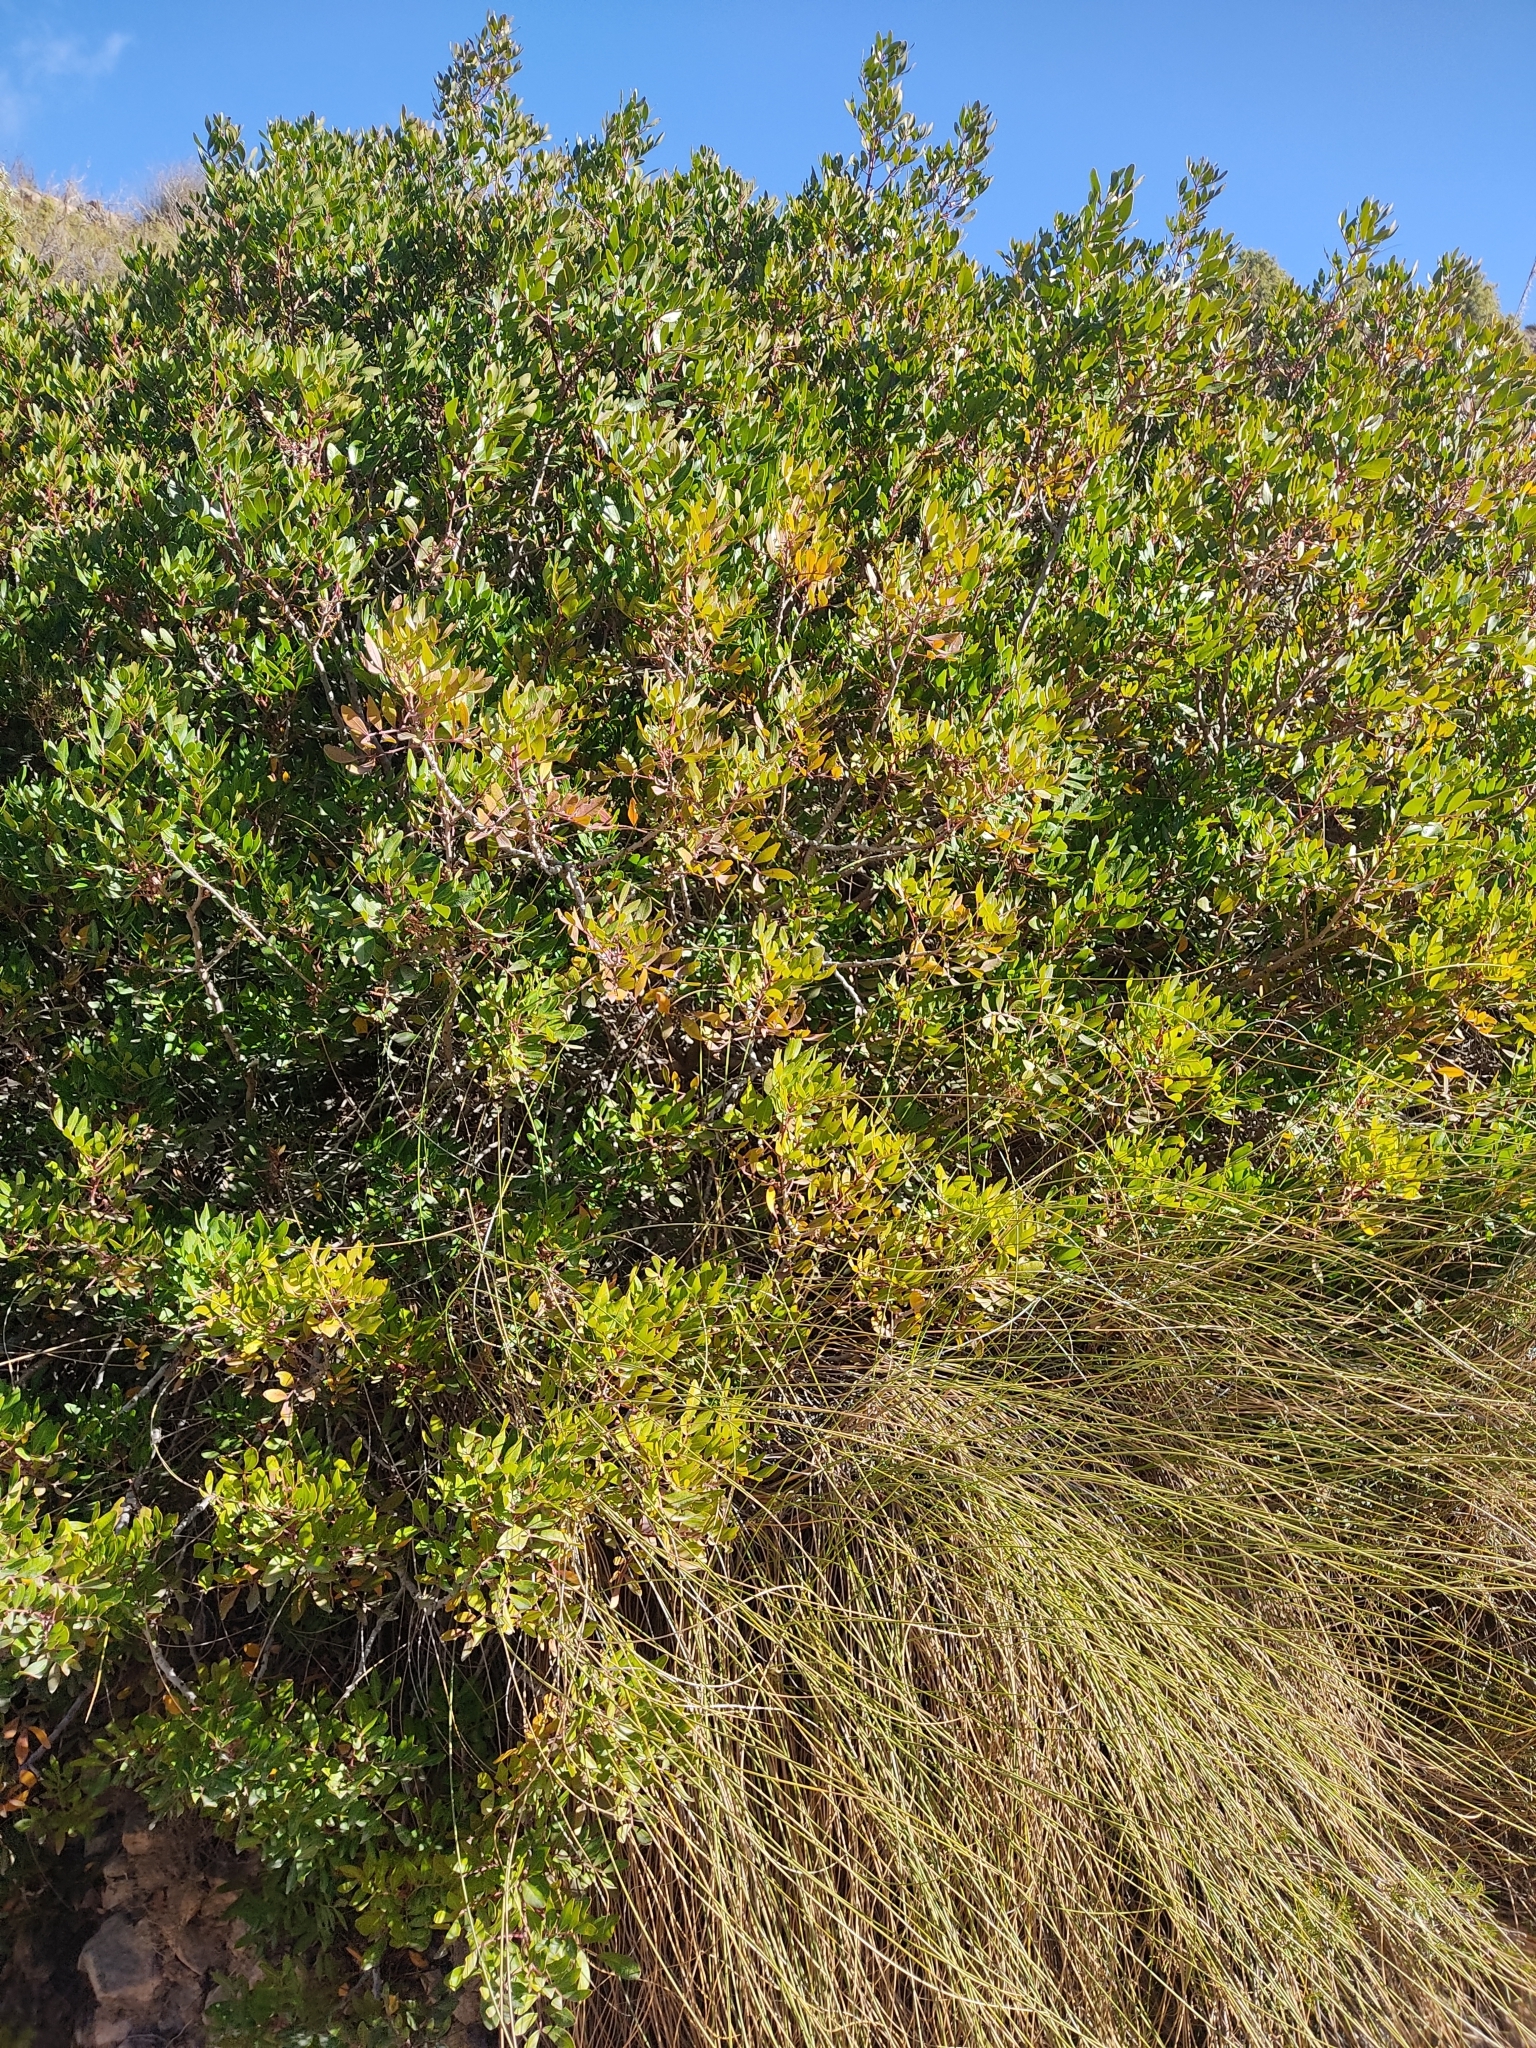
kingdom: Plantae
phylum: Tracheophyta
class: Magnoliopsida
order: Sapindales
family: Anacardiaceae
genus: Pistacia
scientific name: Pistacia lentiscus
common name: Lentisk
